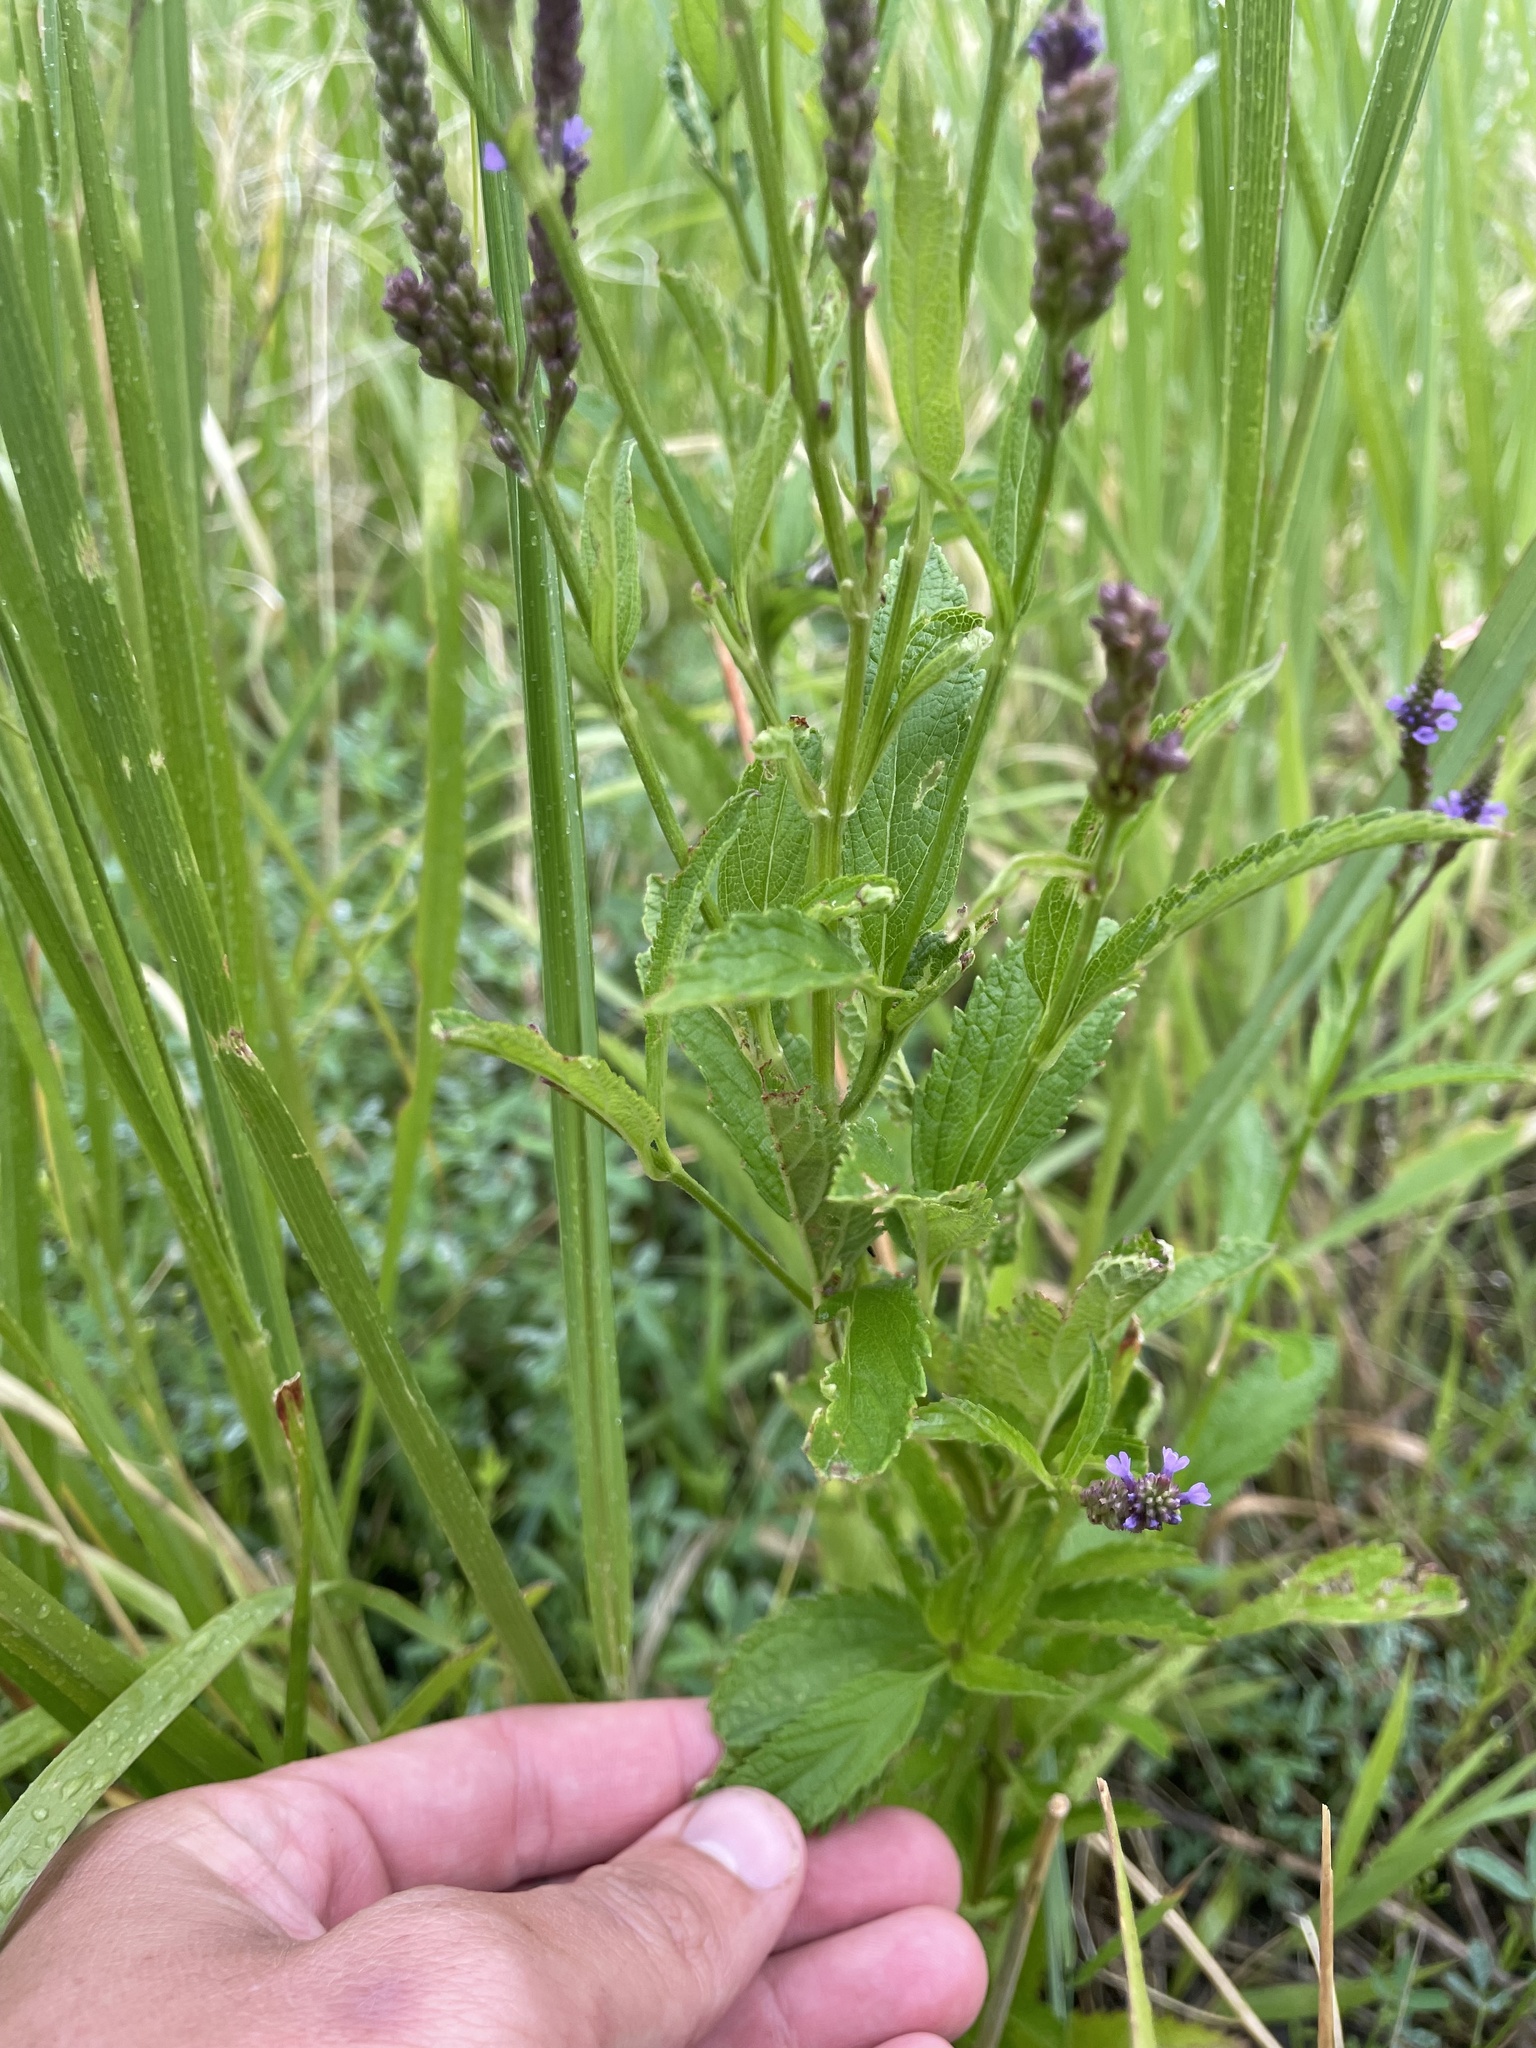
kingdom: Plantae
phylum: Tracheophyta
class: Magnoliopsida
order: Lamiales
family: Verbenaceae
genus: Verbena
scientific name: Verbena hastata
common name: American blue vervain
